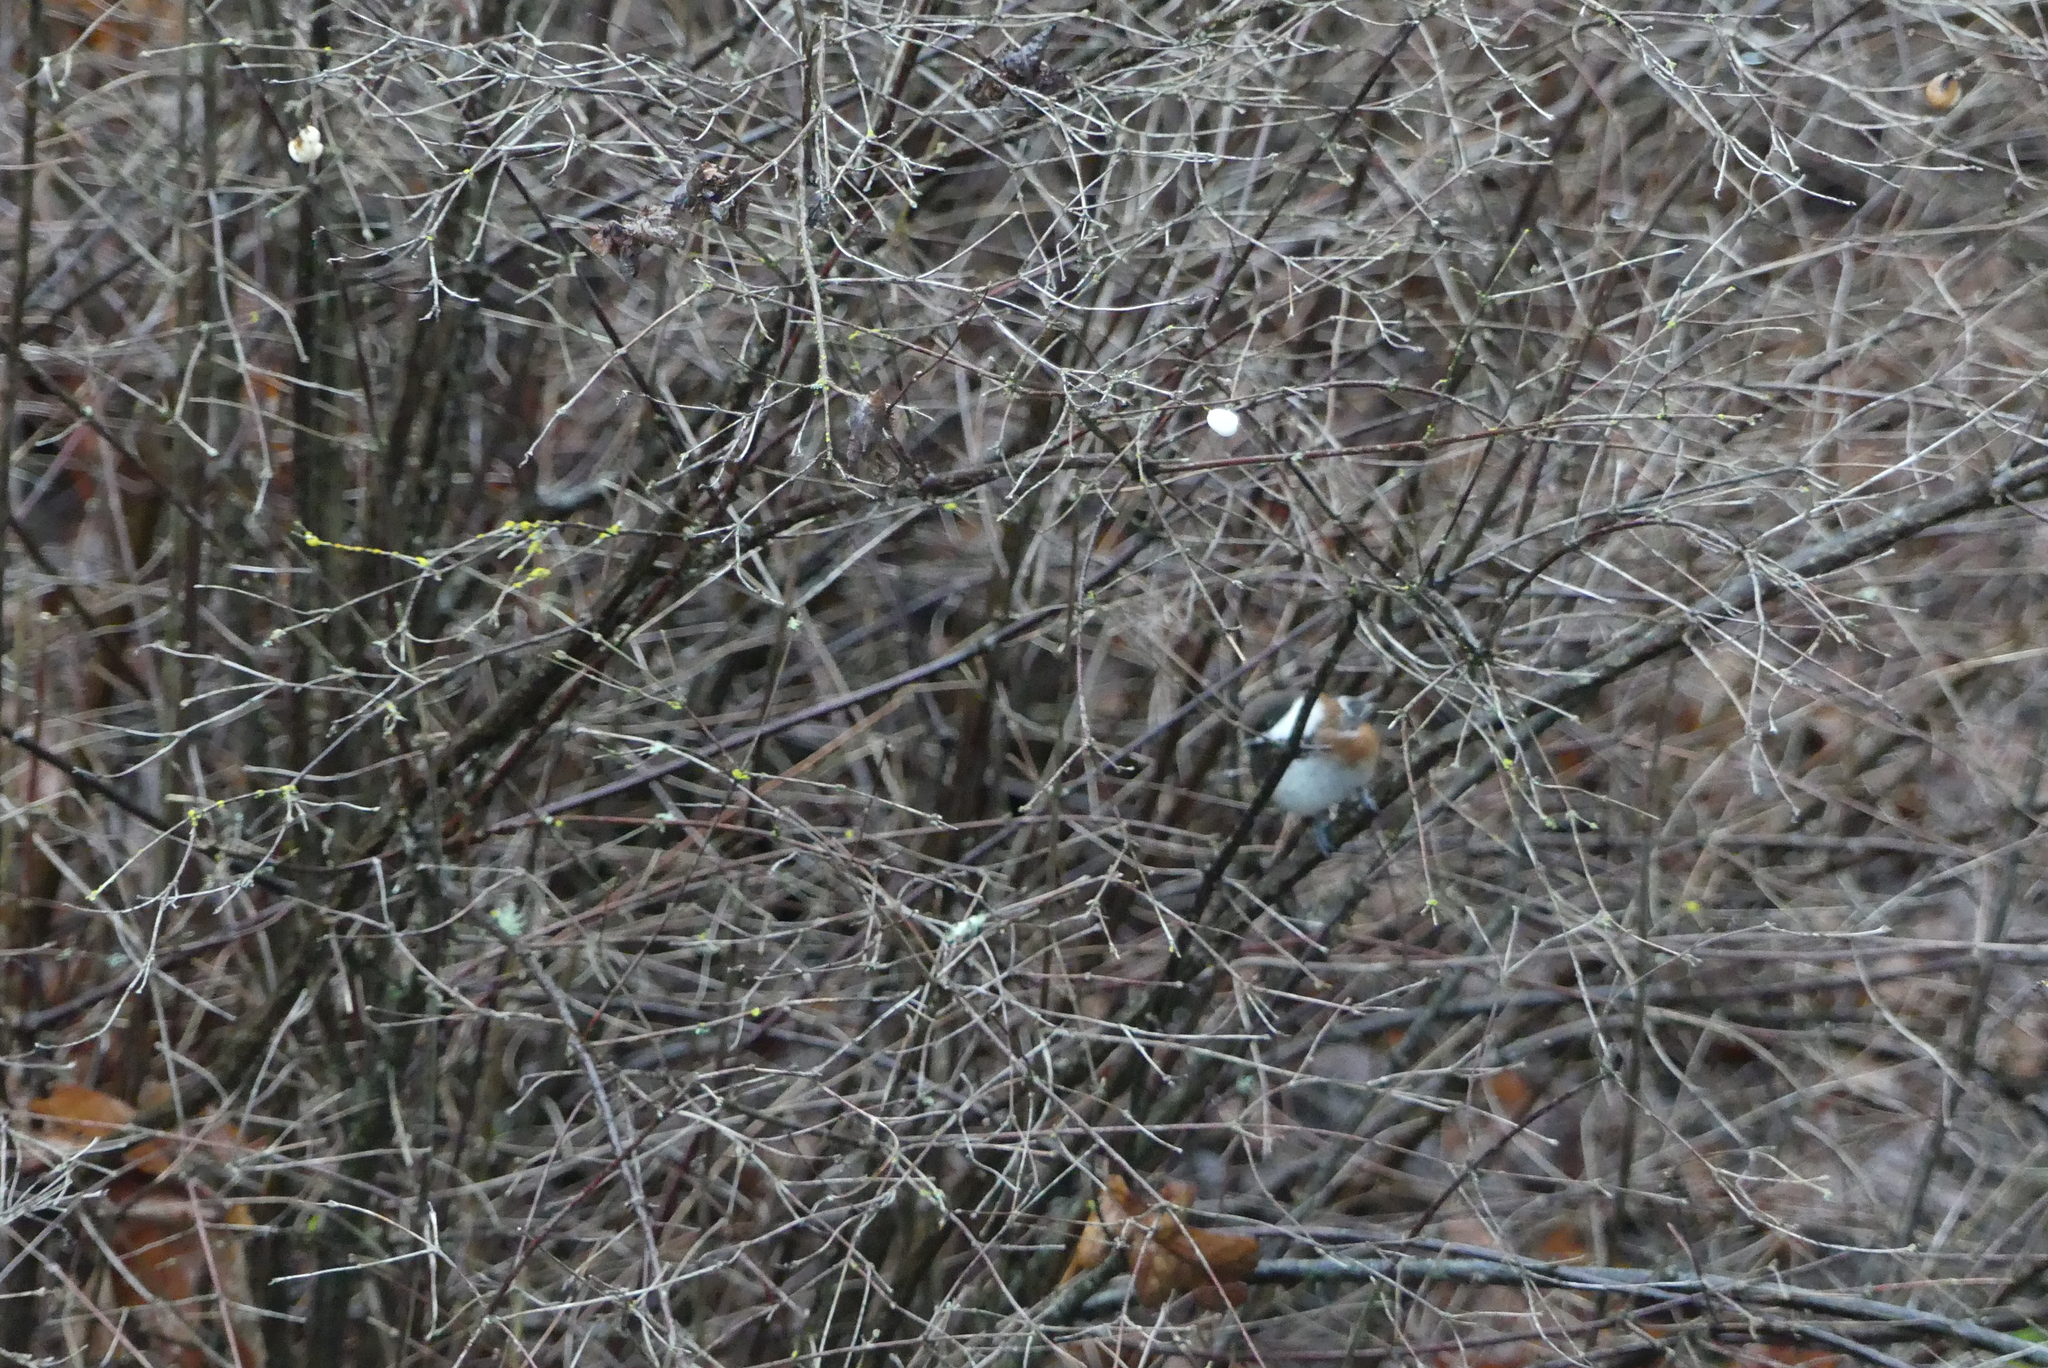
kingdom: Animalia
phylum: Chordata
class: Aves
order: Passeriformes
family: Paridae
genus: Poecile
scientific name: Poecile rufescens
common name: Chestnut-backed chickadee
